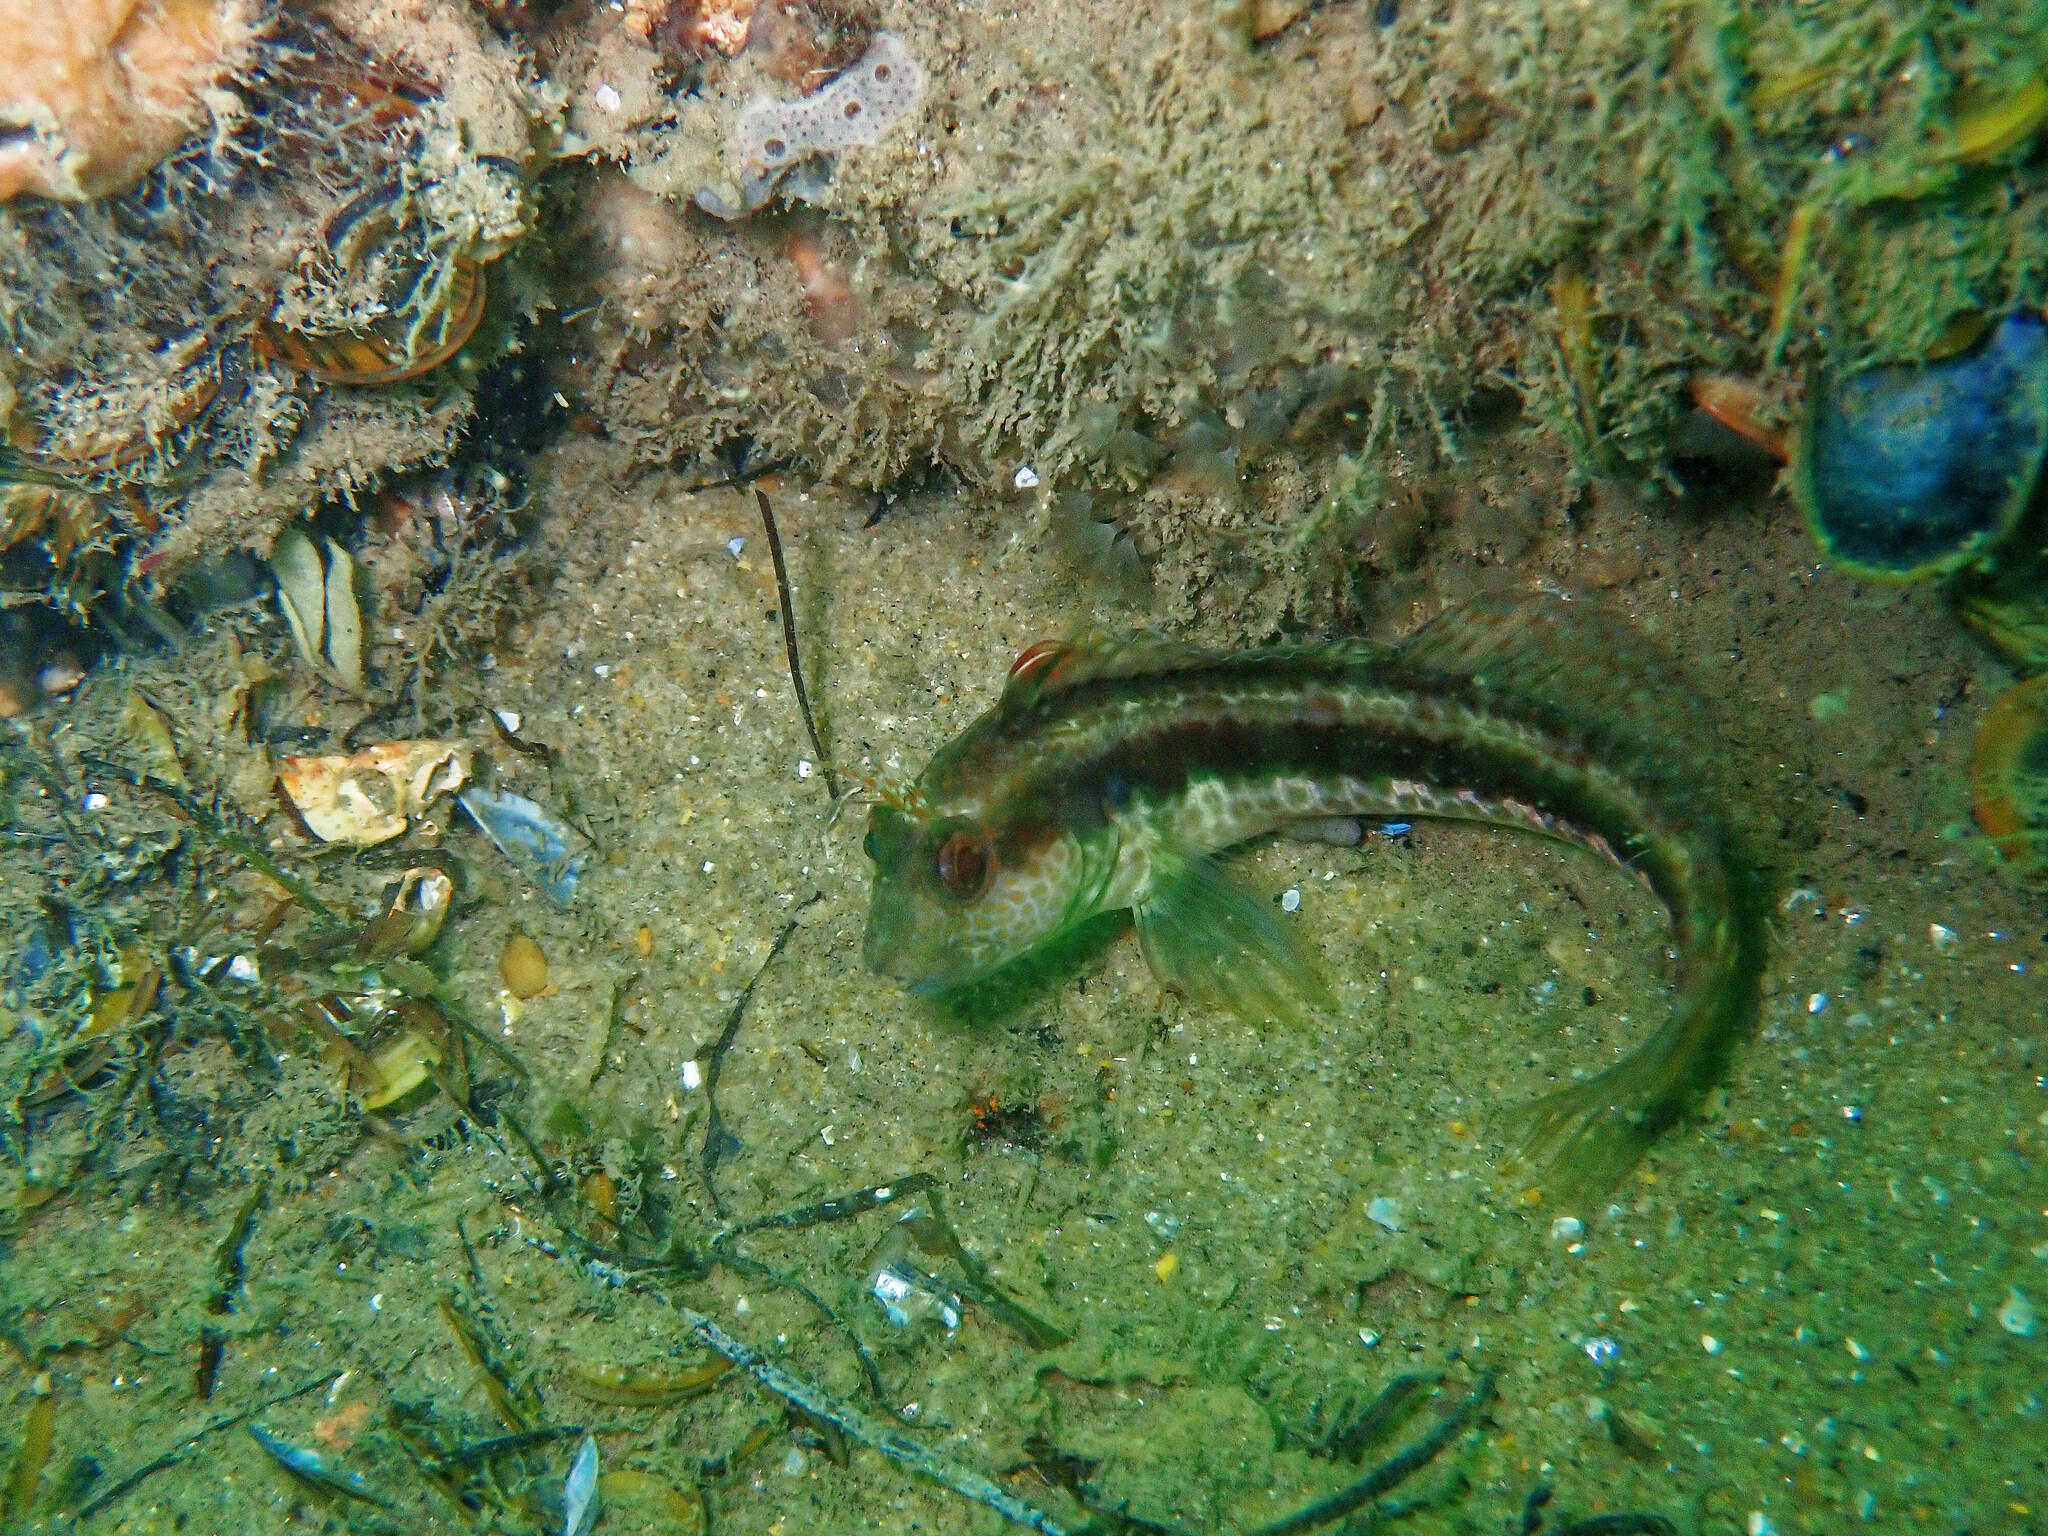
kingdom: Animalia
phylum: Chordata
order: Perciformes
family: Blenniidae
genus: Parablennius
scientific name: Parablennius pilicornis
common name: Ringneck blenny
